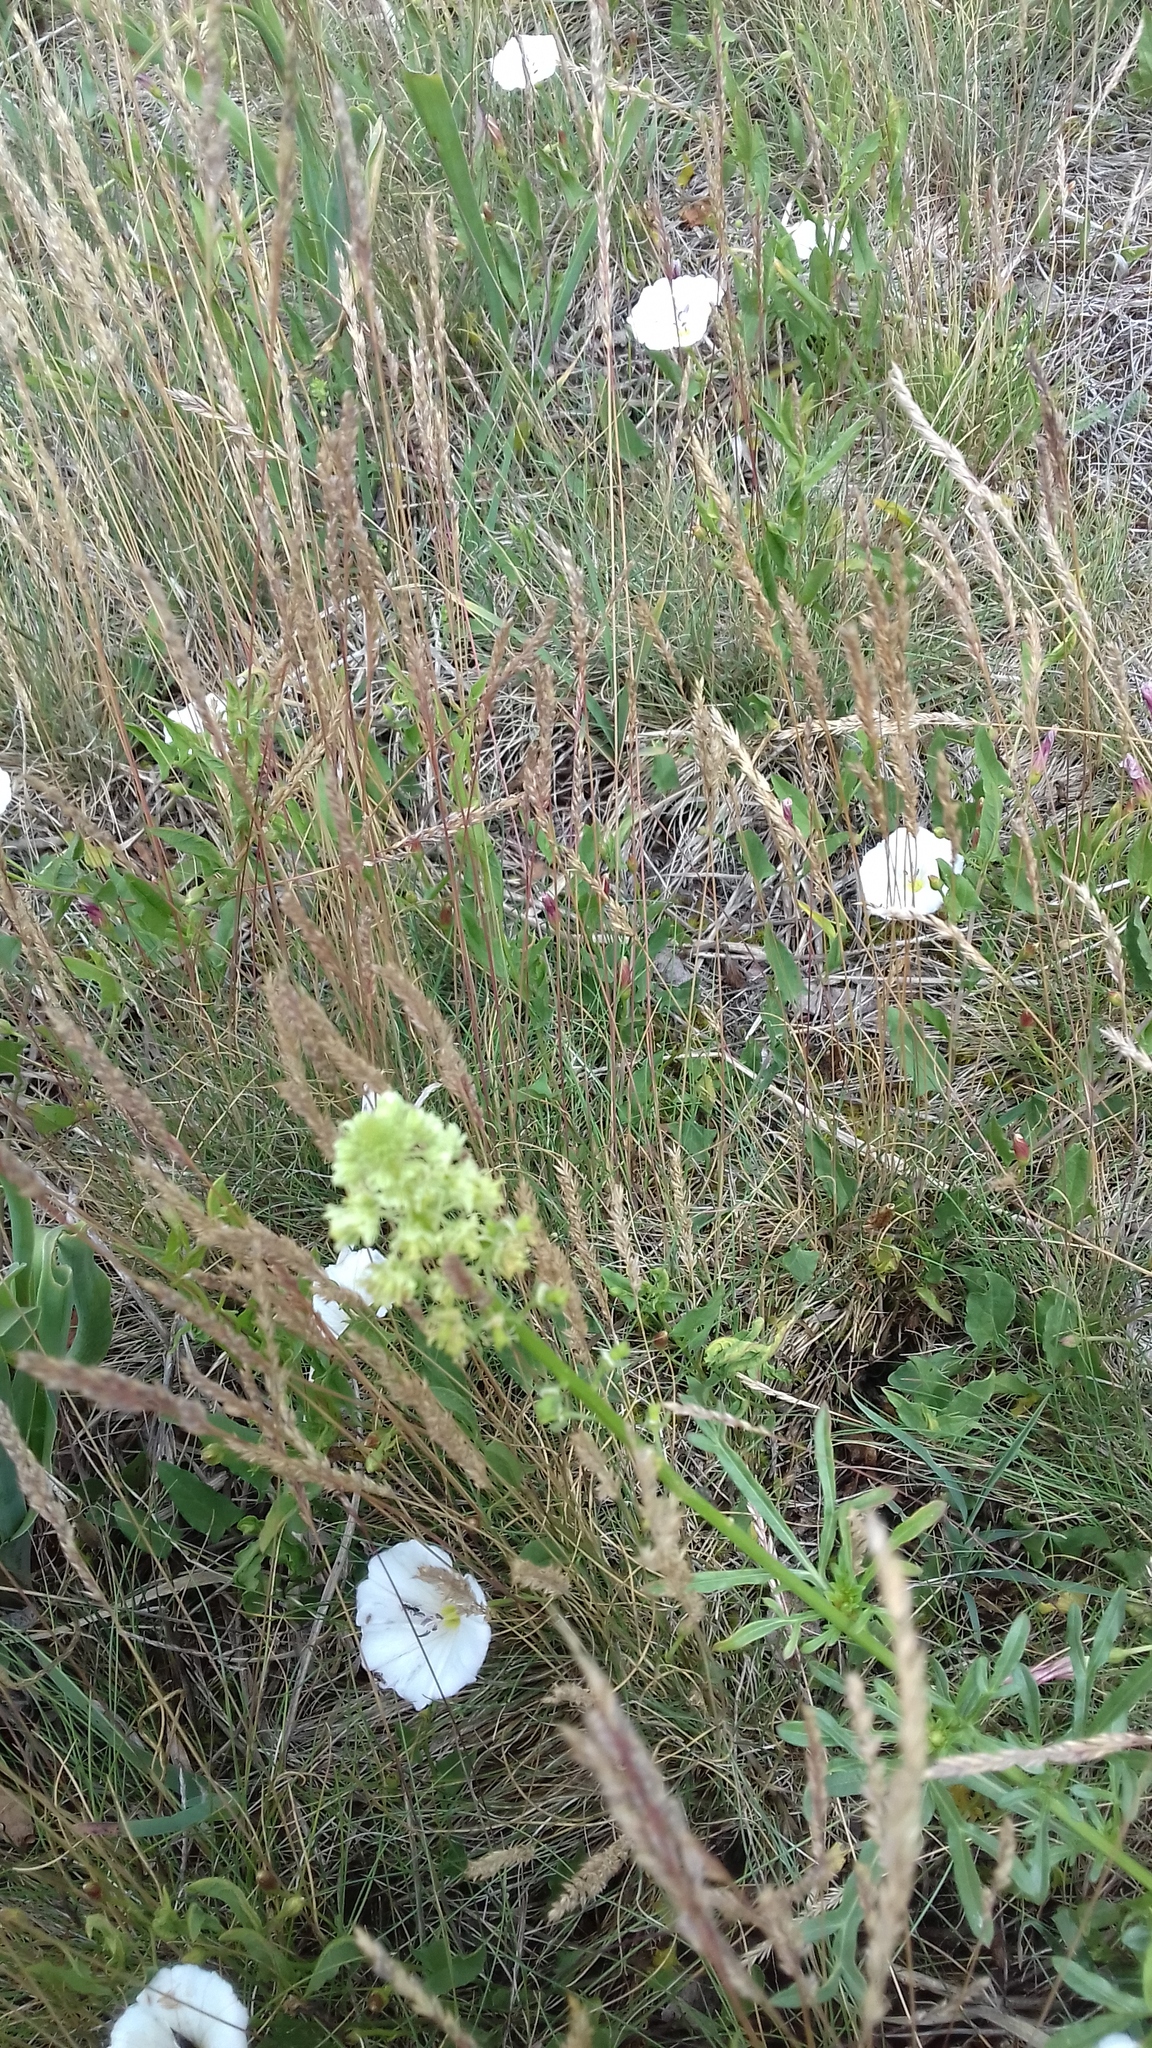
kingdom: Plantae
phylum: Tracheophyta
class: Magnoliopsida
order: Brassicales
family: Resedaceae
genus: Reseda
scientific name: Reseda lutea
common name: Wild mignonette
